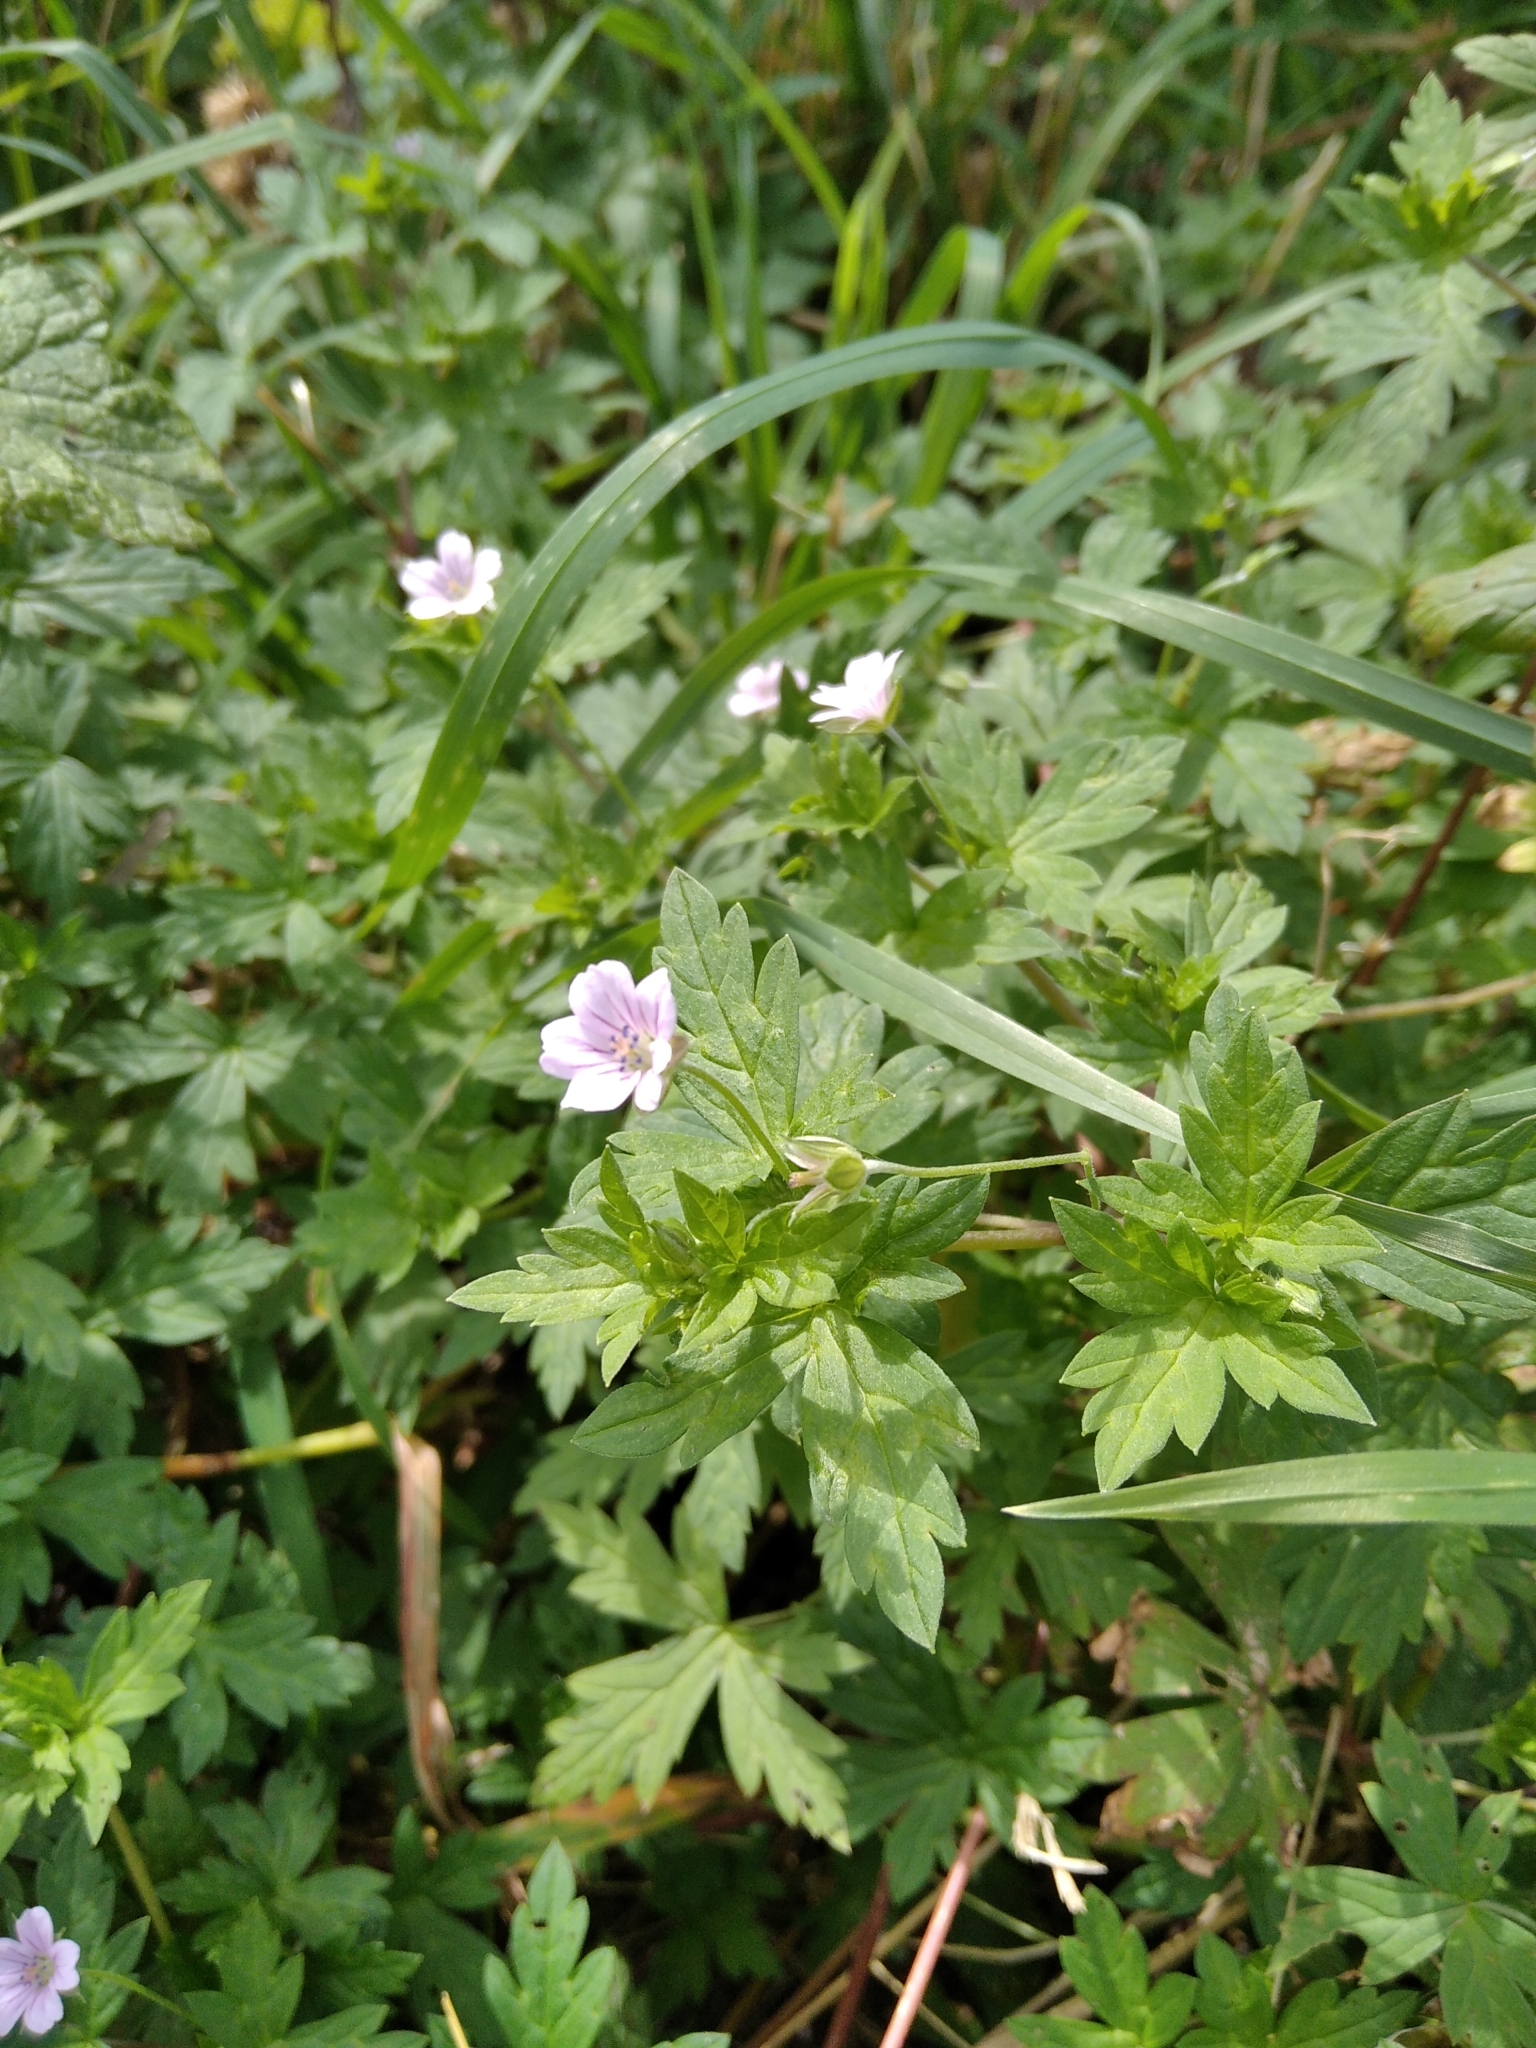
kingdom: Plantae
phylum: Tracheophyta
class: Magnoliopsida
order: Geraniales
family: Geraniaceae
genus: Geranium
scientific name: Geranium sibiricum
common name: Siberian crane's-bill
